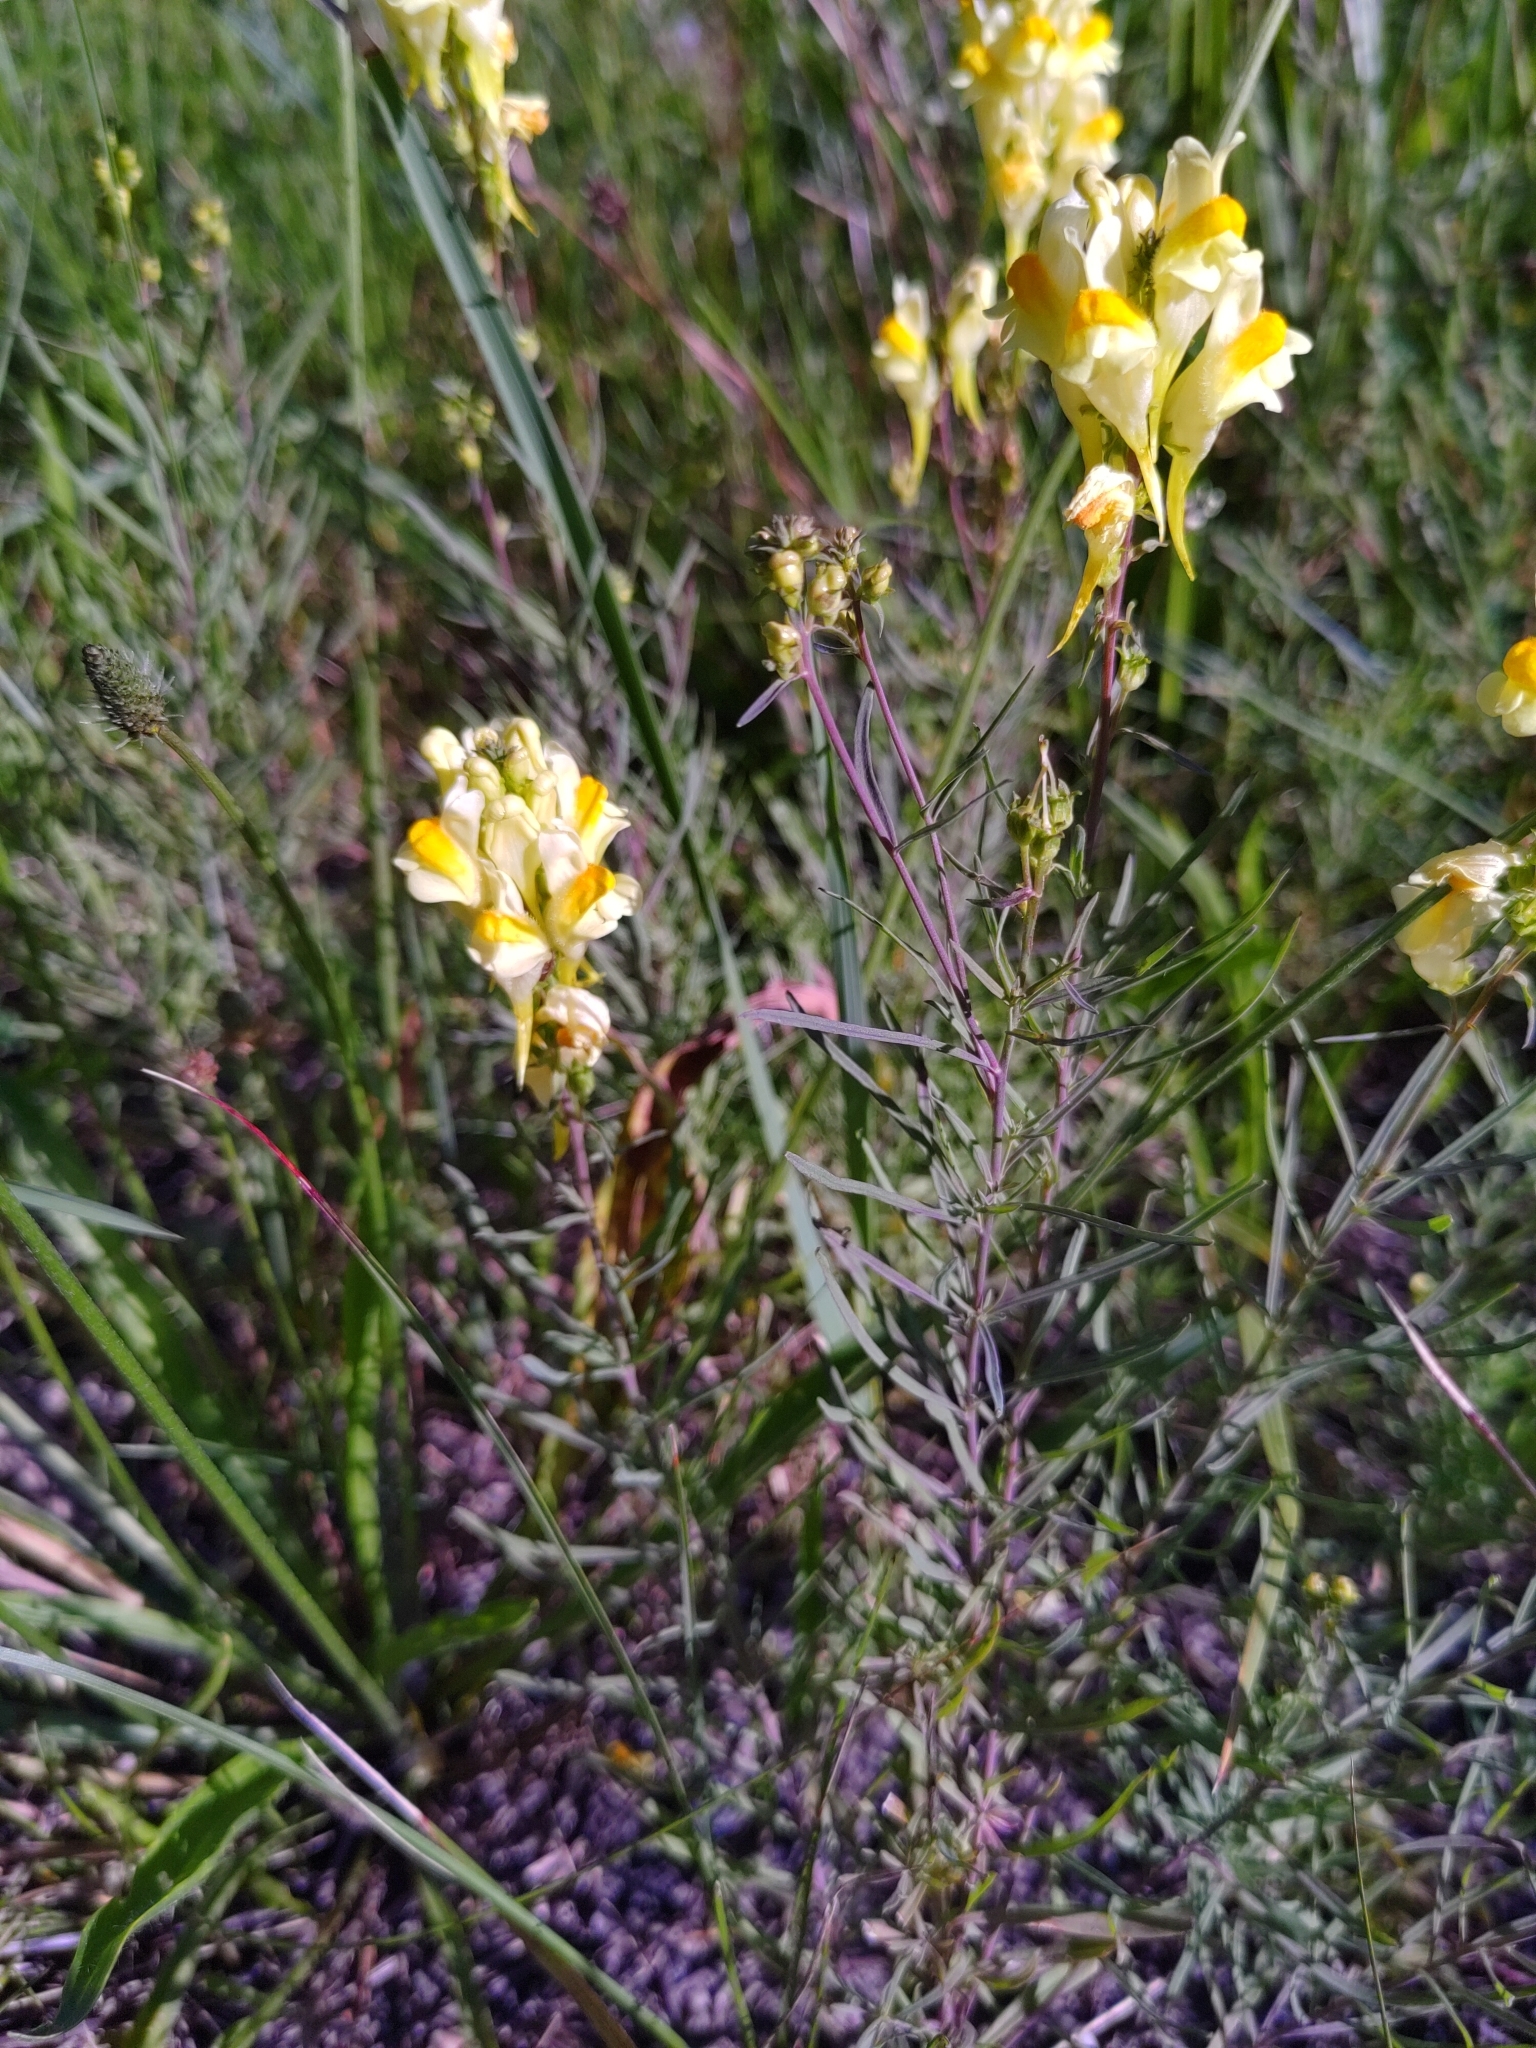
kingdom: Plantae
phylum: Tracheophyta
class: Magnoliopsida
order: Lamiales
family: Plantaginaceae
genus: Linaria
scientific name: Linaria vulgaris
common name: Butter and eggs
